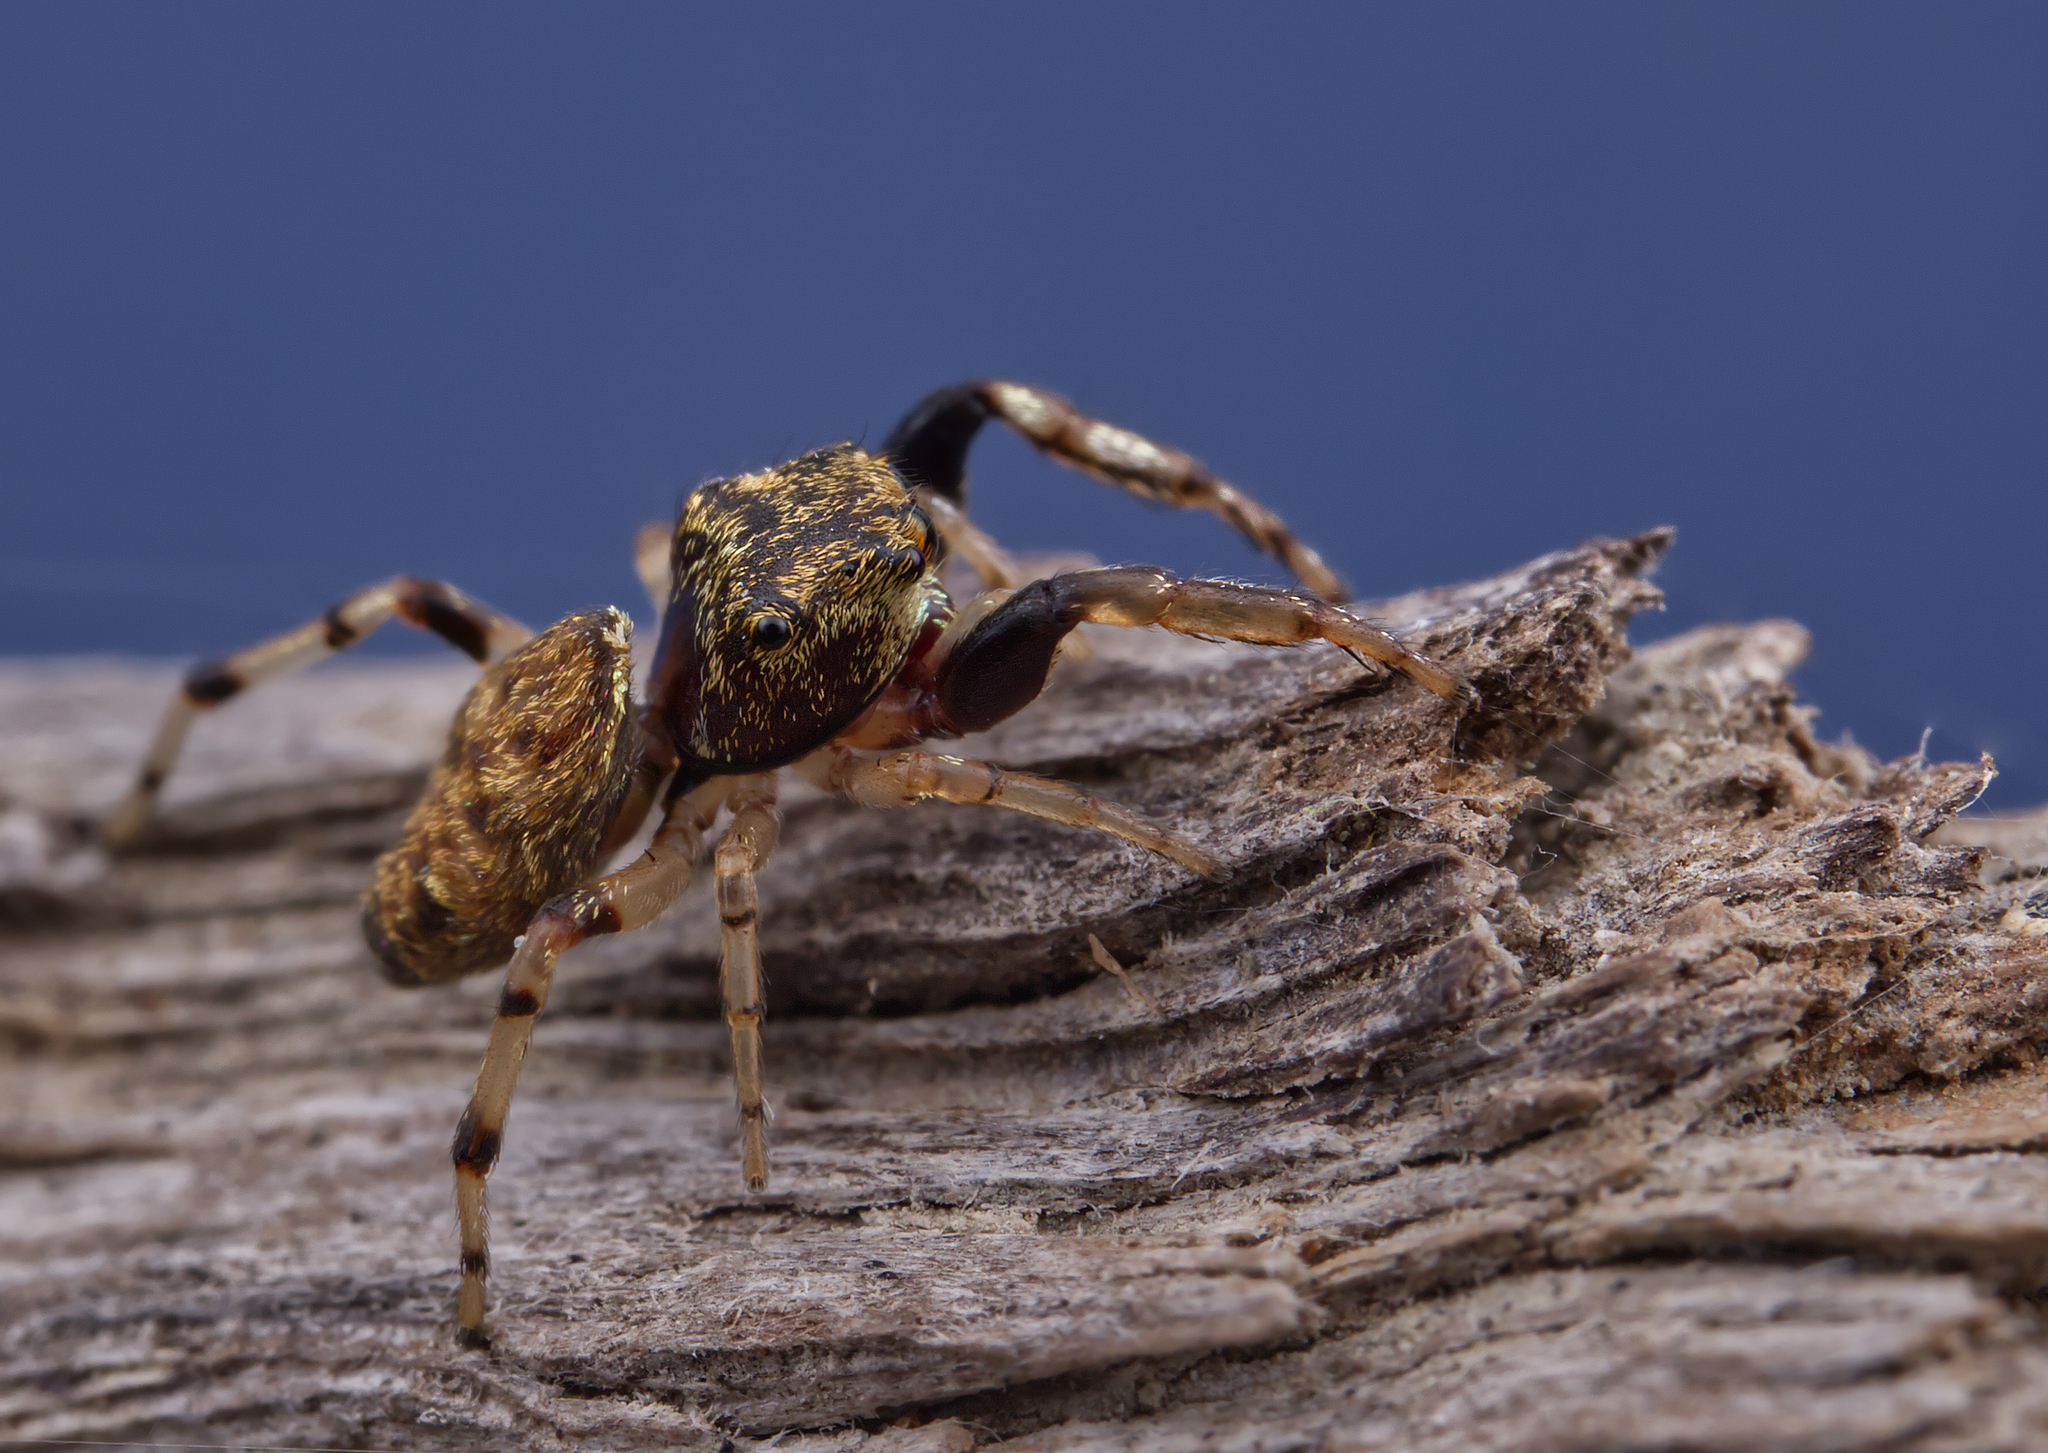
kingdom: Animalia
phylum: Arthropoda
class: Arachnida
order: Araneae
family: Salticidae
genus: Zygoballus
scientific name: Zygoballus rufipes
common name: Jumping spiders
